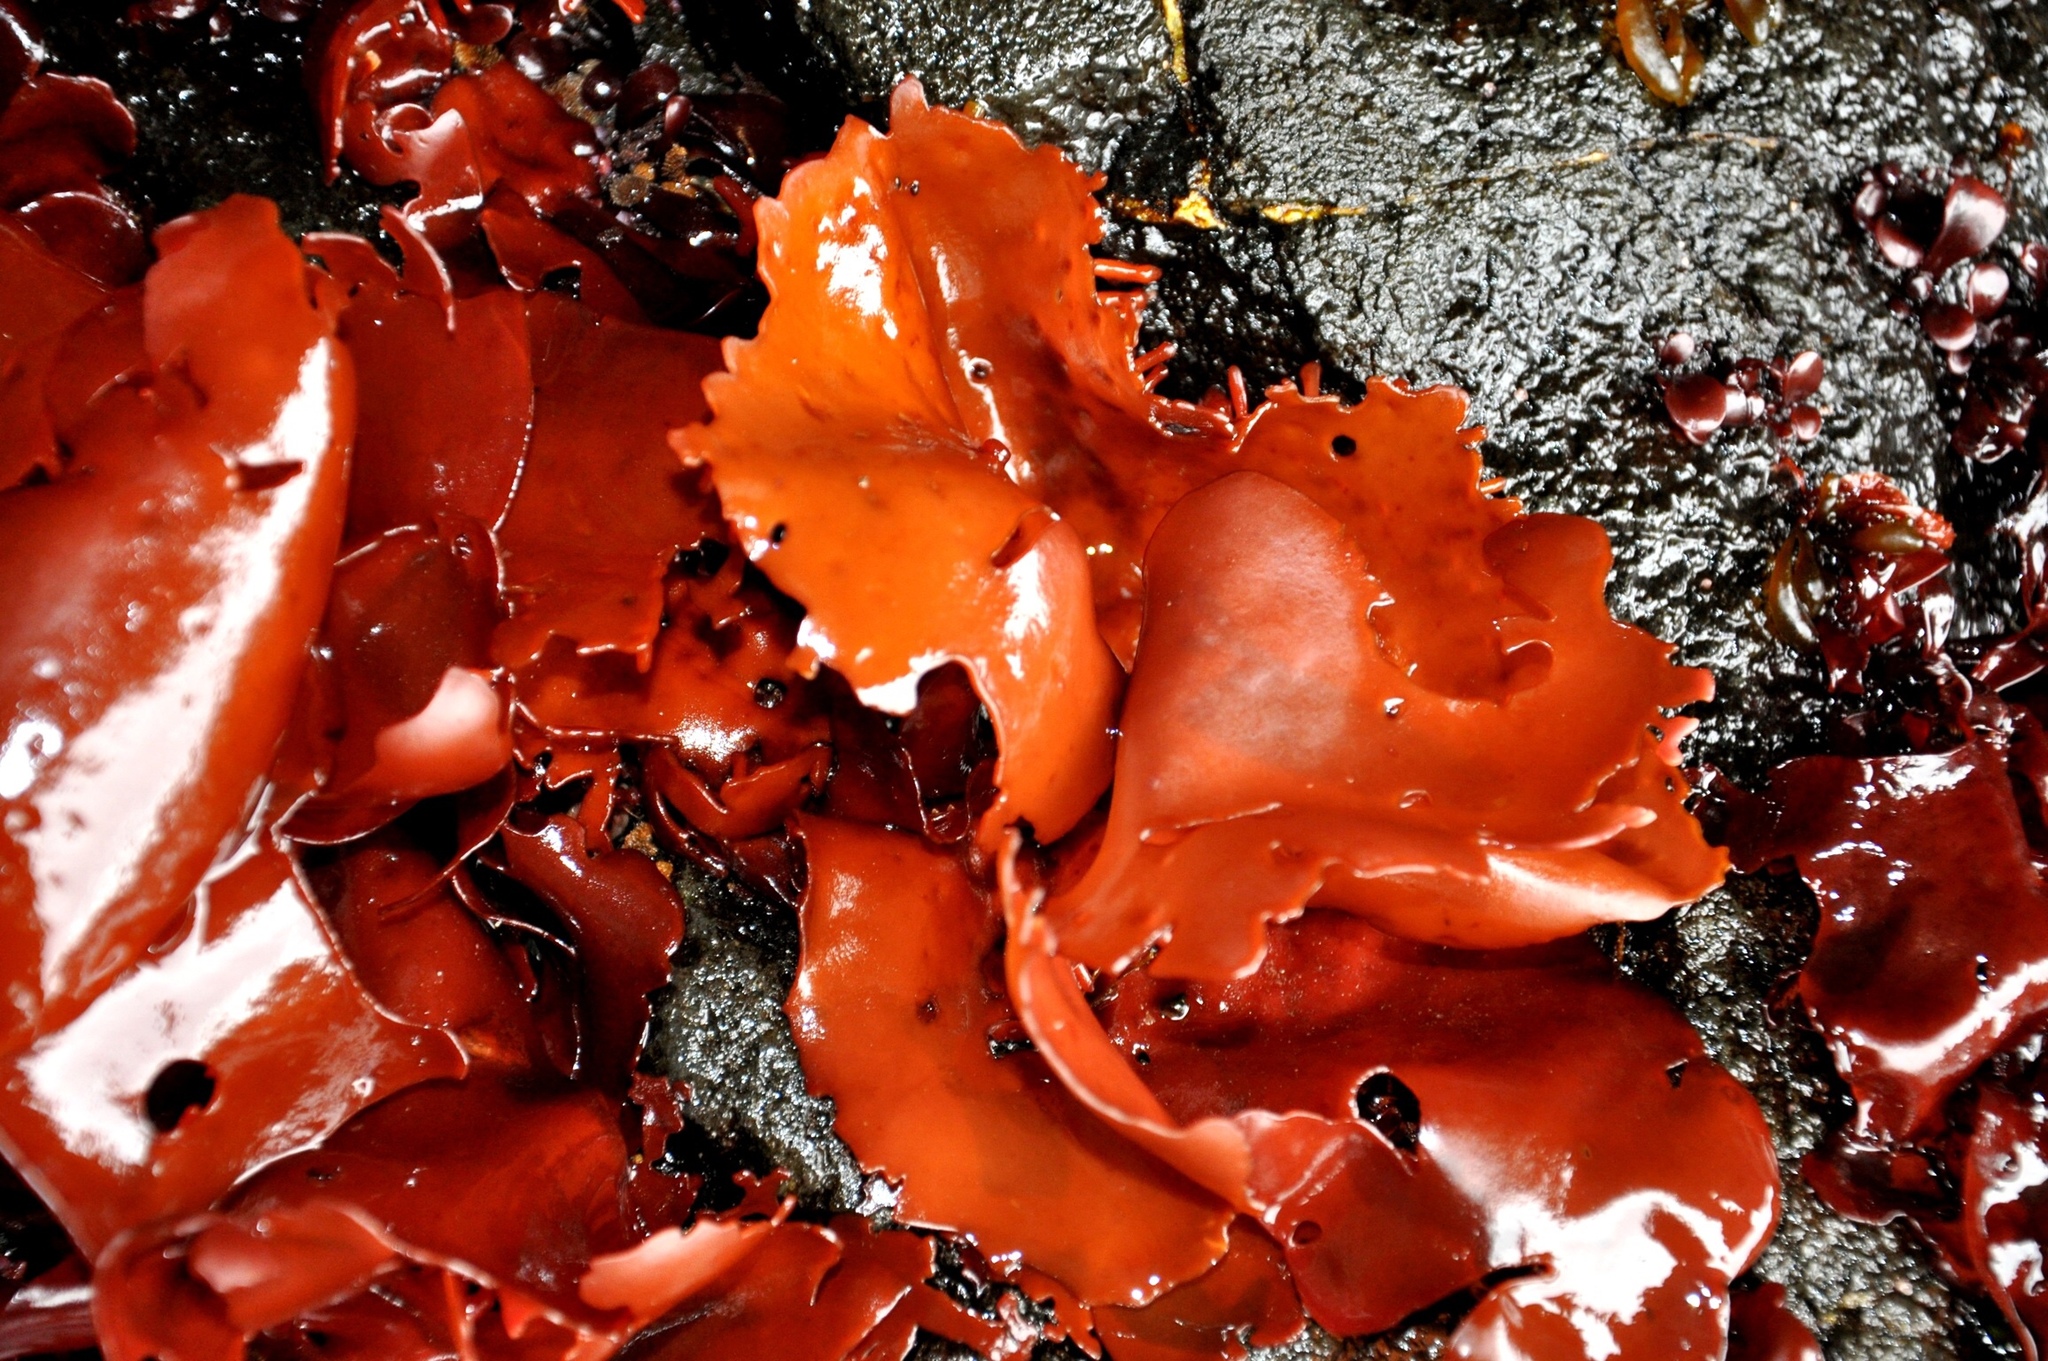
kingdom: Plantae
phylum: Rhodophyta
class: Florideophyceae
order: Gigartinales
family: Gigartinaceae
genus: Sarcopeltis
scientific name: Sarcopeltis skottsbergii
